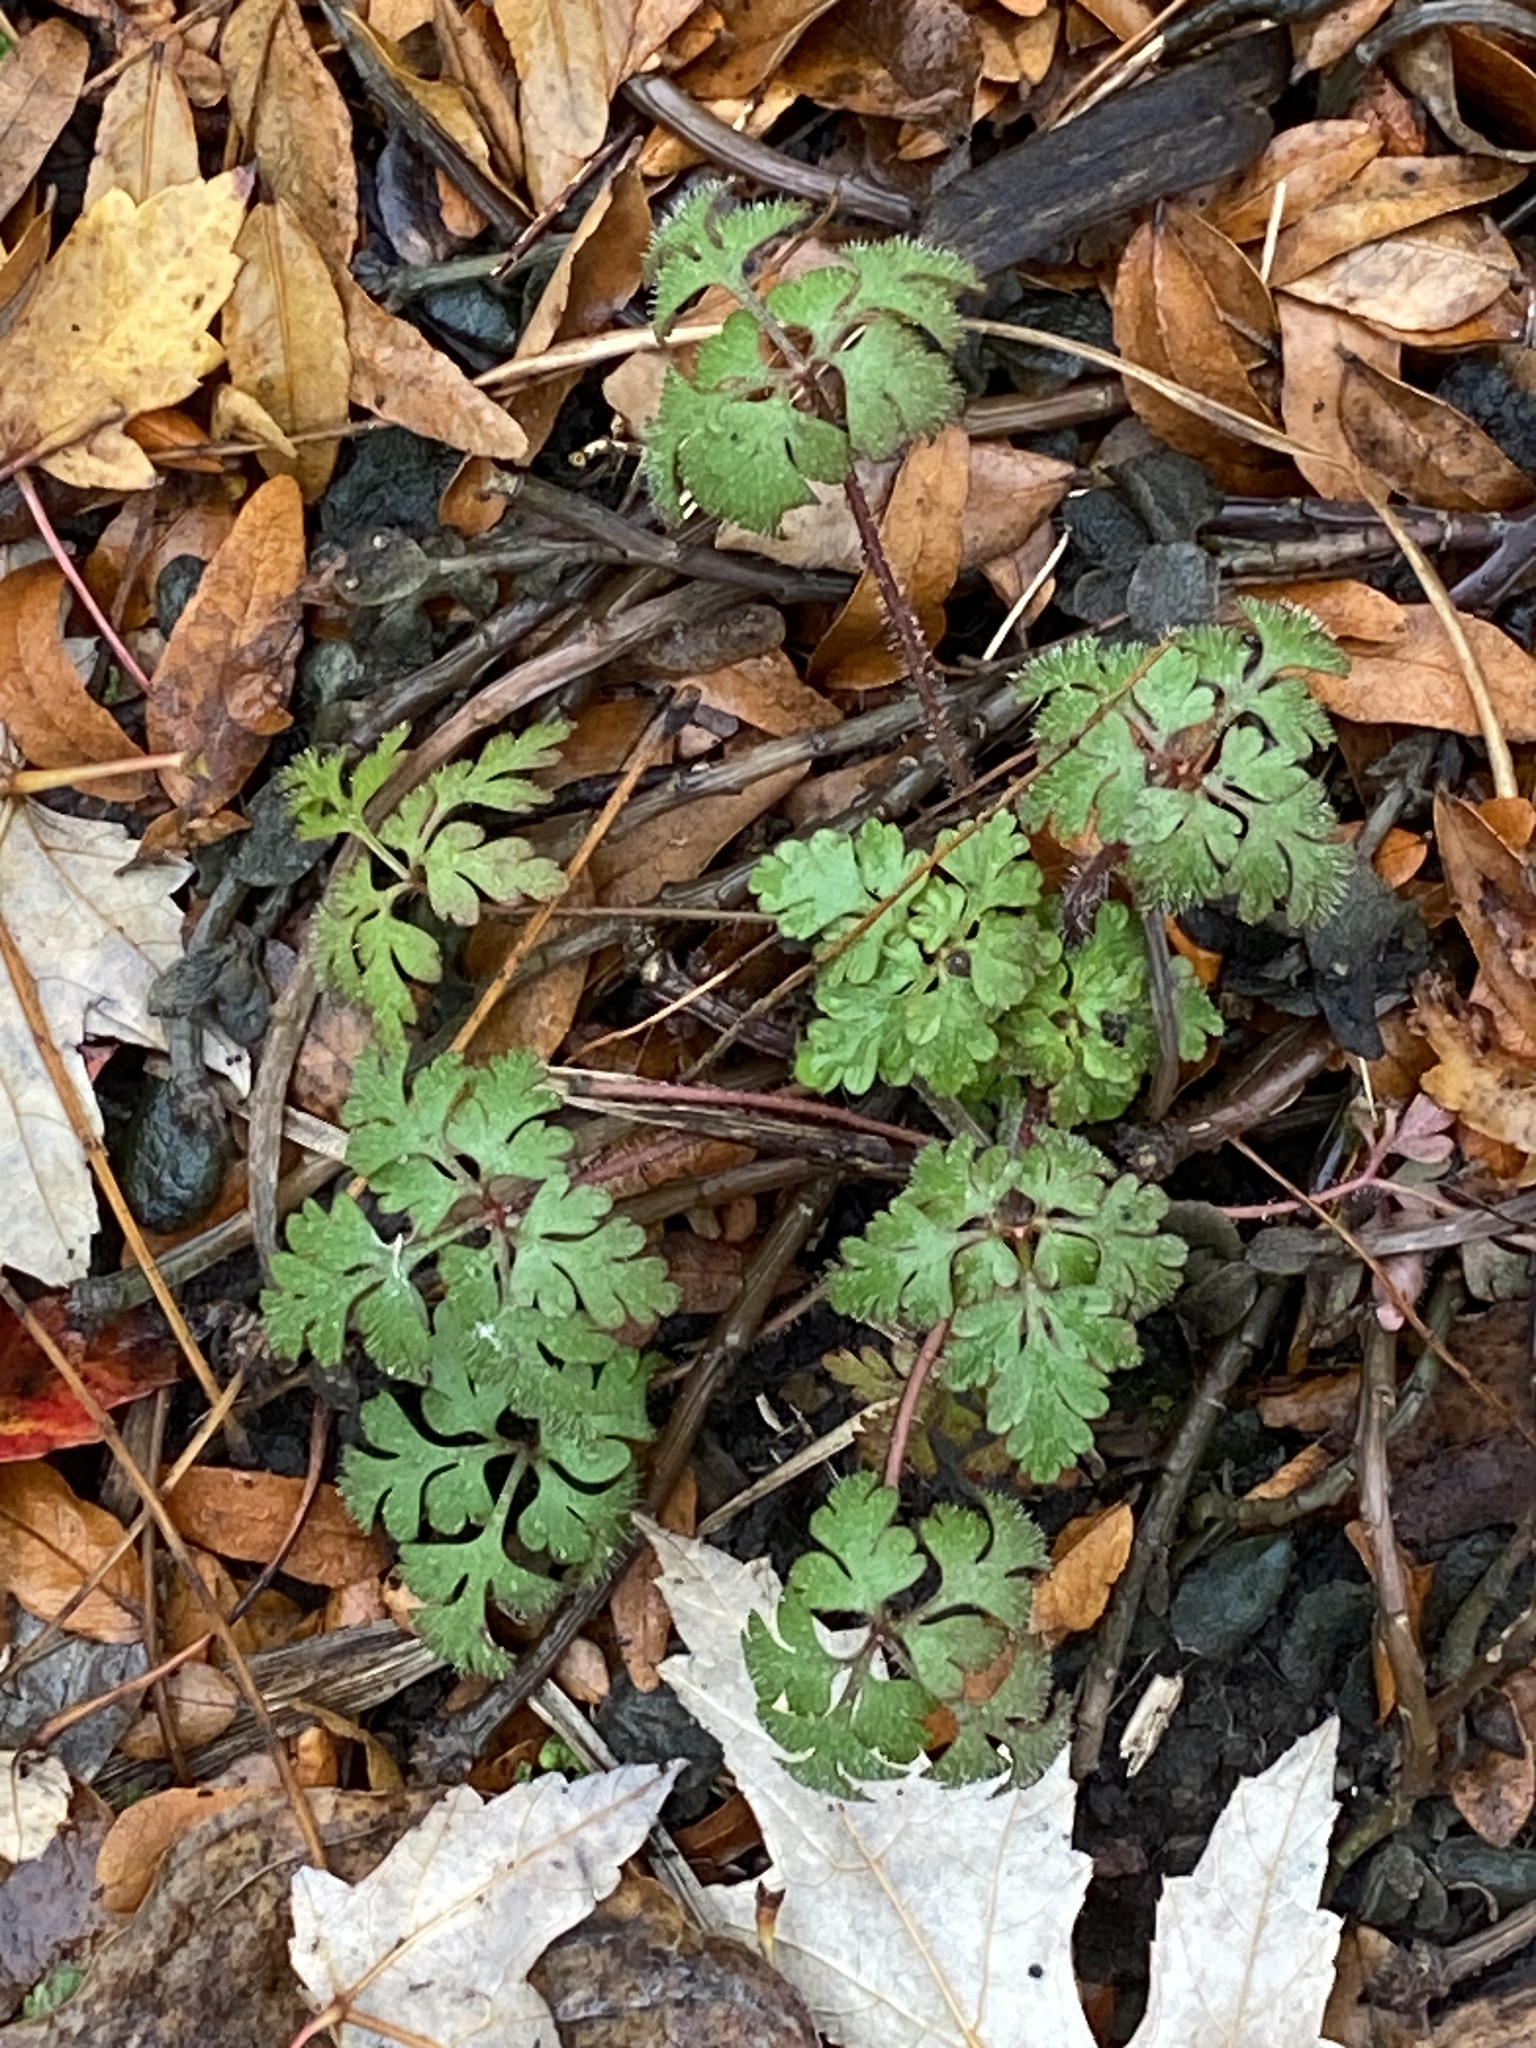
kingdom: Plantae
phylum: Tracheophyta
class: Magnoliopsida
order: Geraniales
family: Geraniaceae
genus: Geranium
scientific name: Geranium robertianum
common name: Herb-robert
